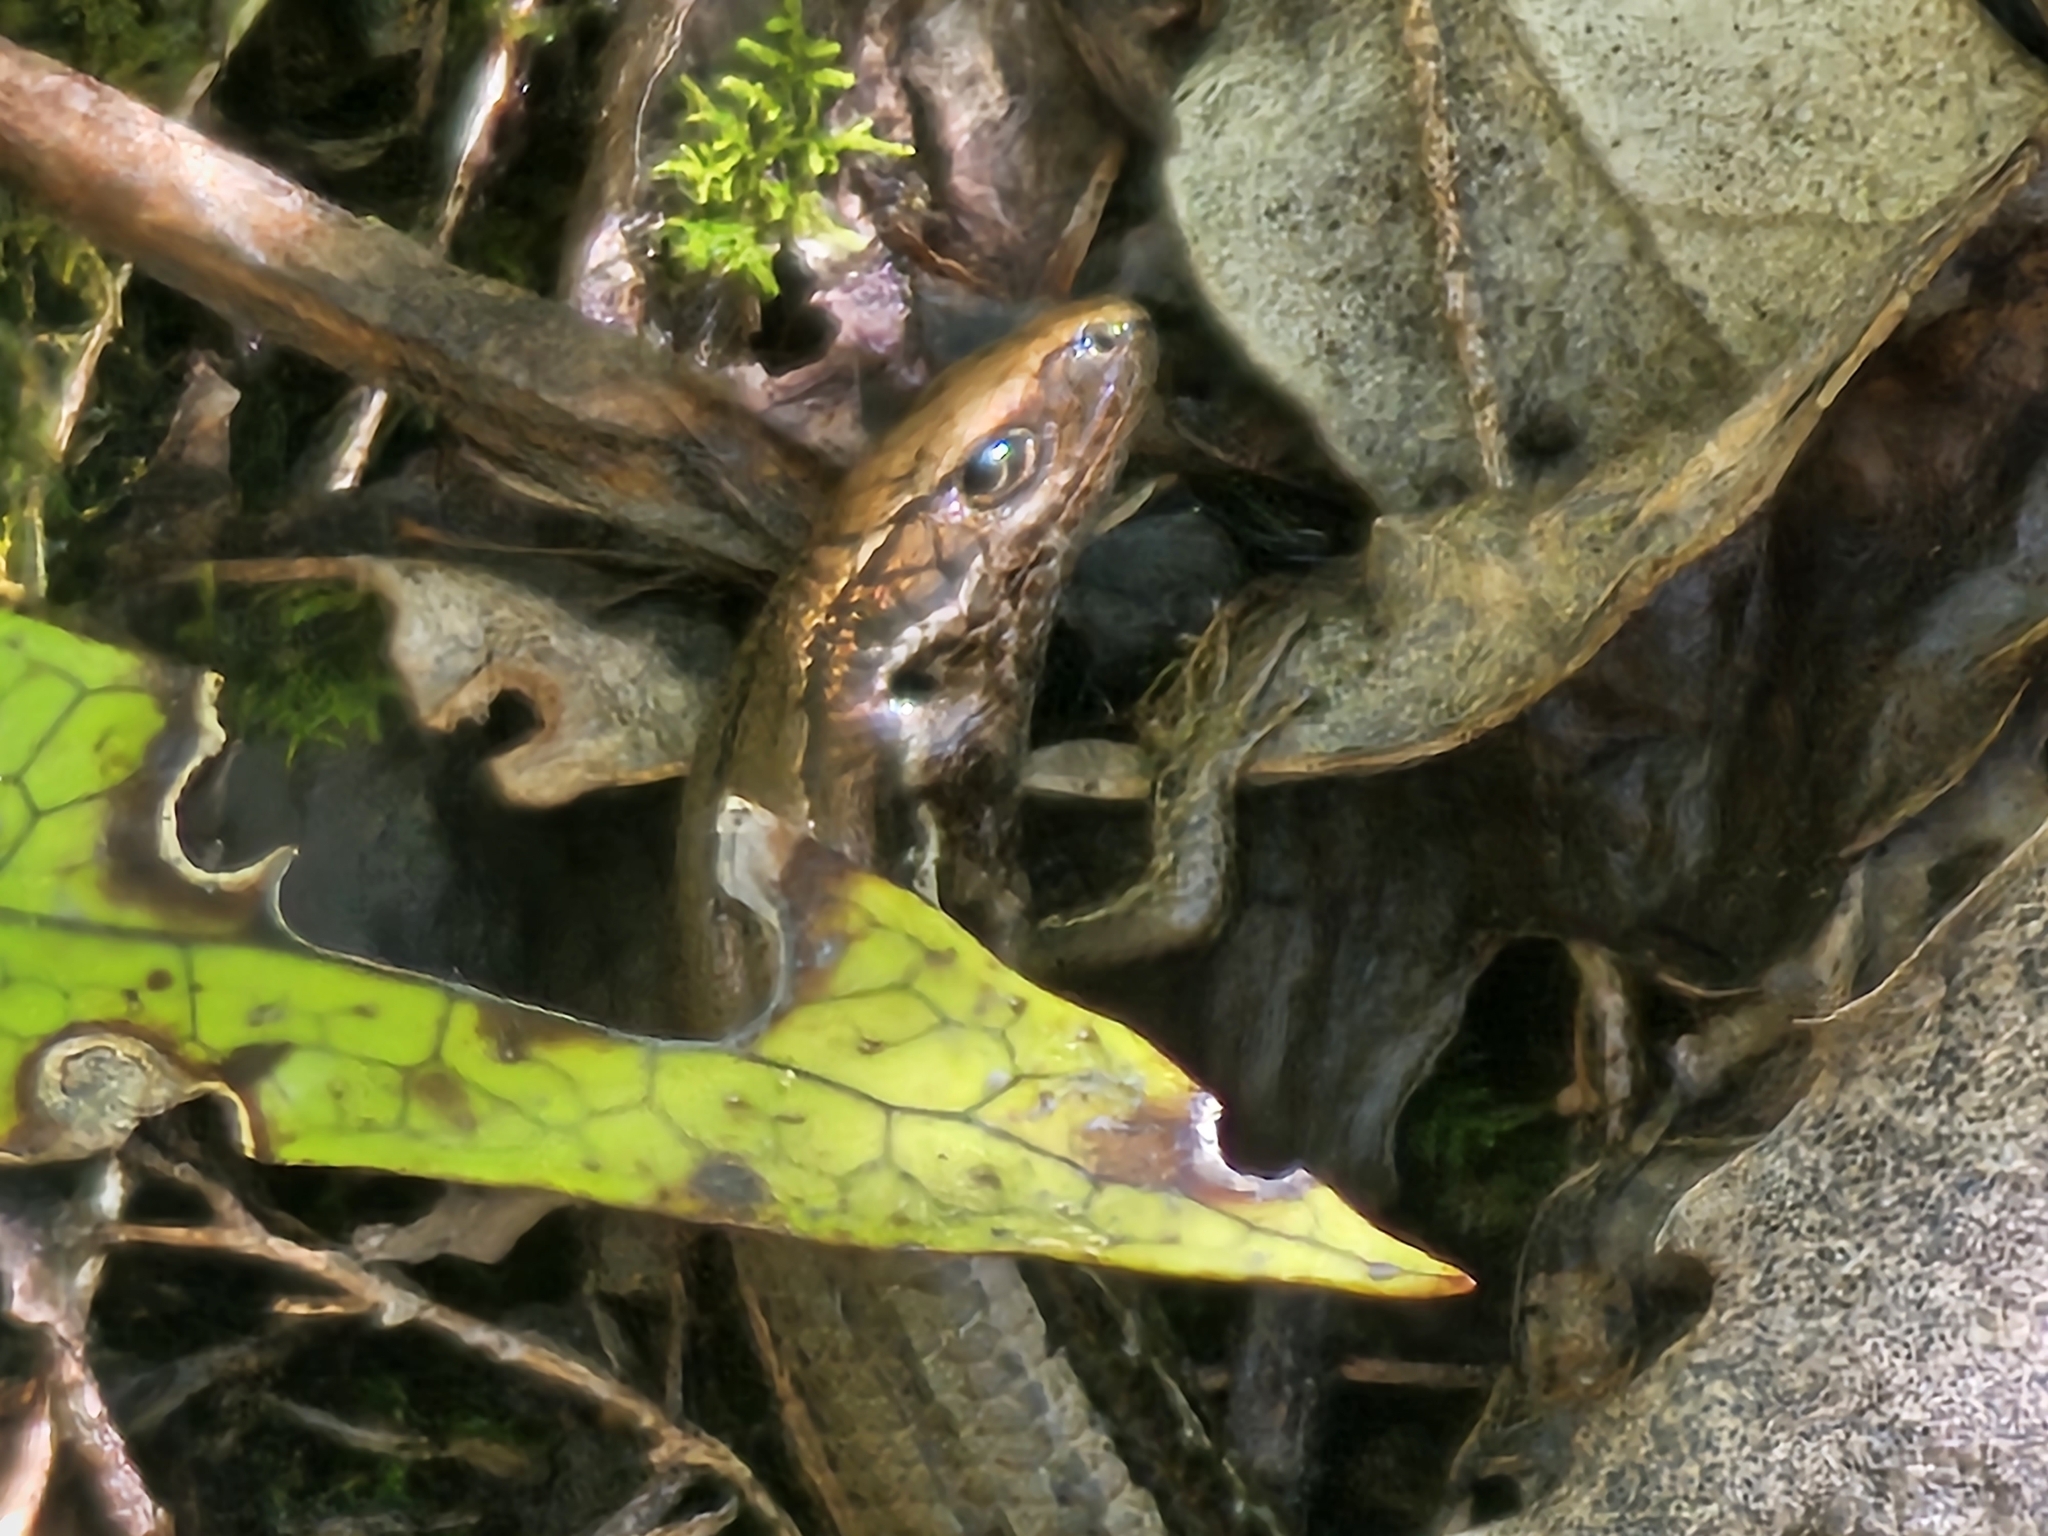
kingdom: Animalia
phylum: Chordata
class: Squamata
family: Scincidae
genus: Oligosoma
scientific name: Oligosoma polychroma
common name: Common new zealand skink
